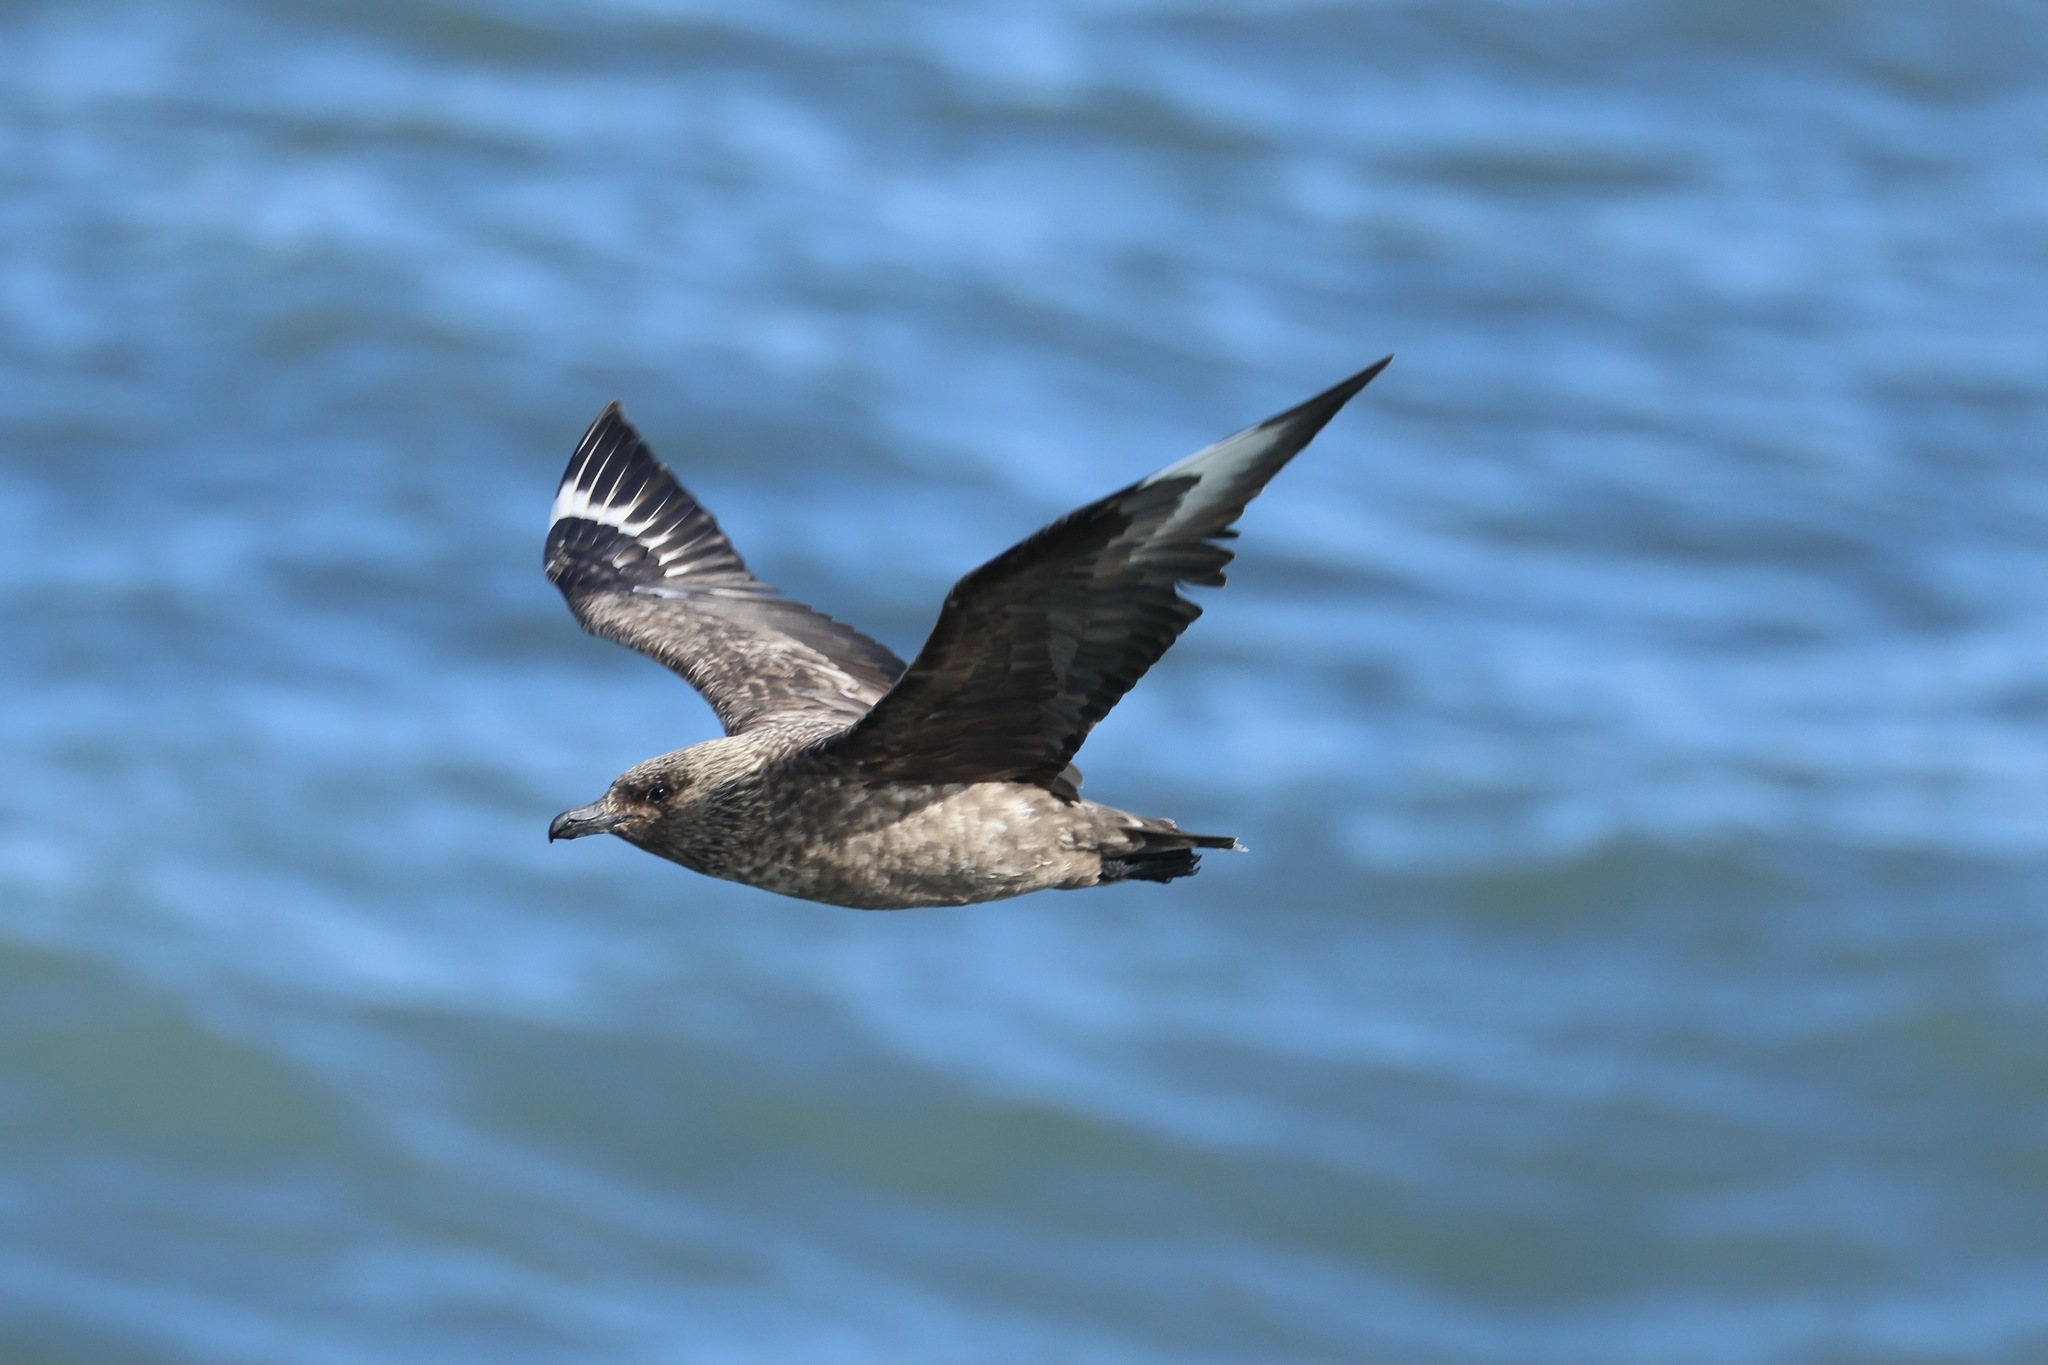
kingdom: Animalia
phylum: Chordata
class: Aves
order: Charadriiformes
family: Stercorariidae
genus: Stercorarius
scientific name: Stercorarius skua
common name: Great skua
